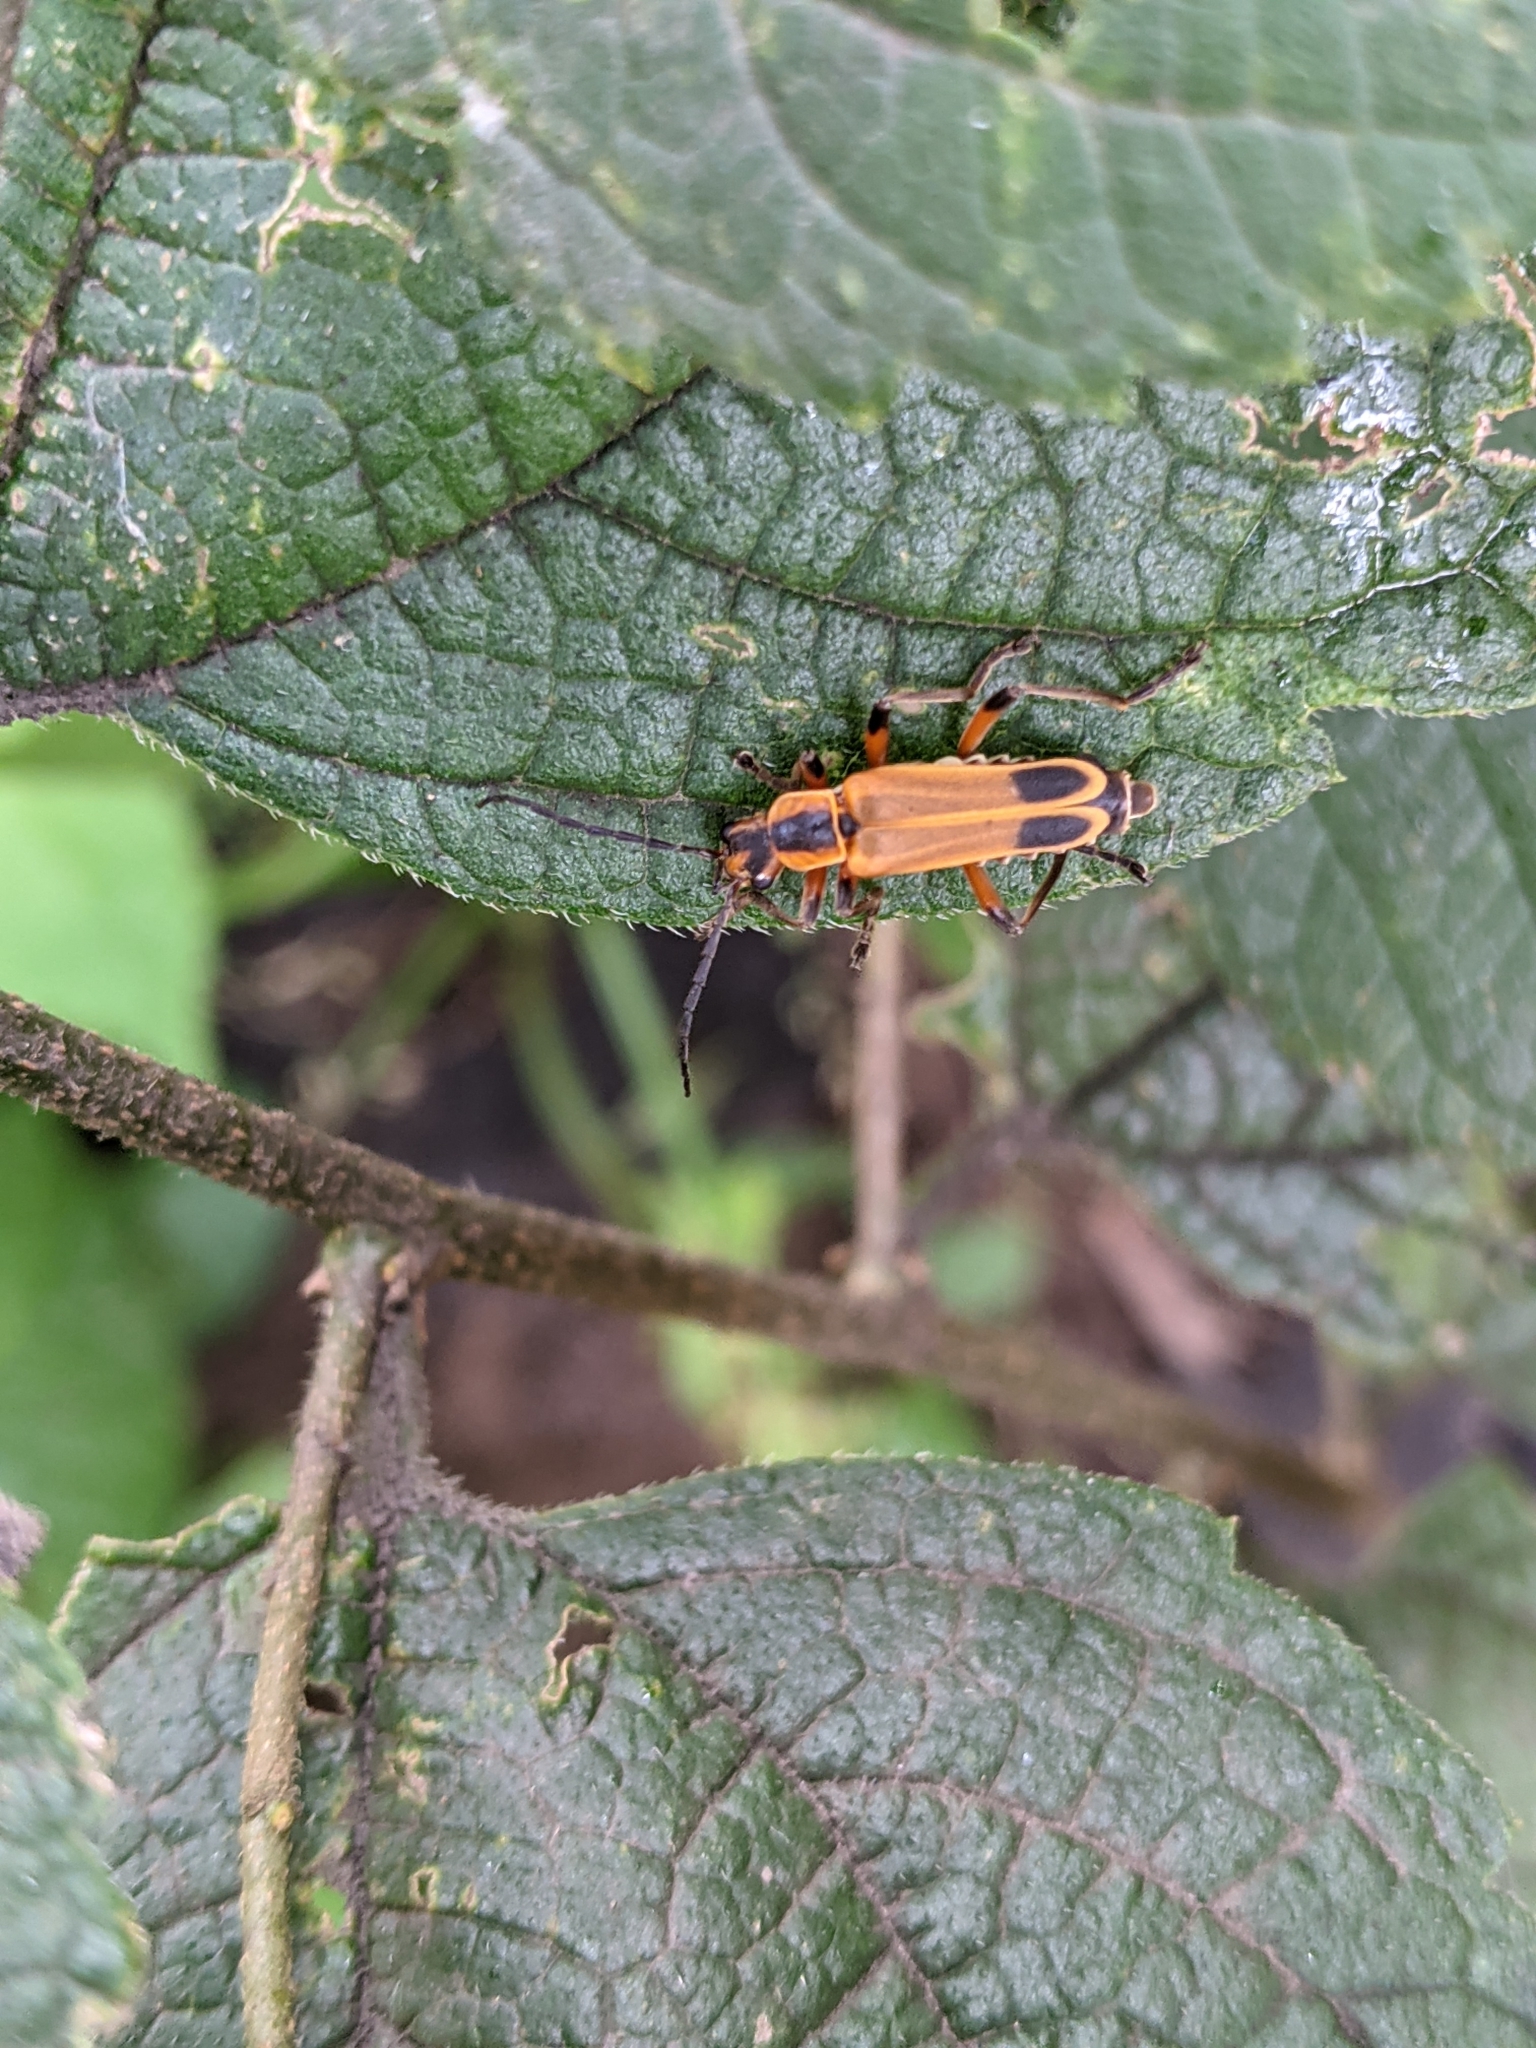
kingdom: Animalia
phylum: Arthropoda
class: Insecta
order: Coleoptera
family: Cantharidae
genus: Chauliognathus
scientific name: Chauliognathus marginatus
